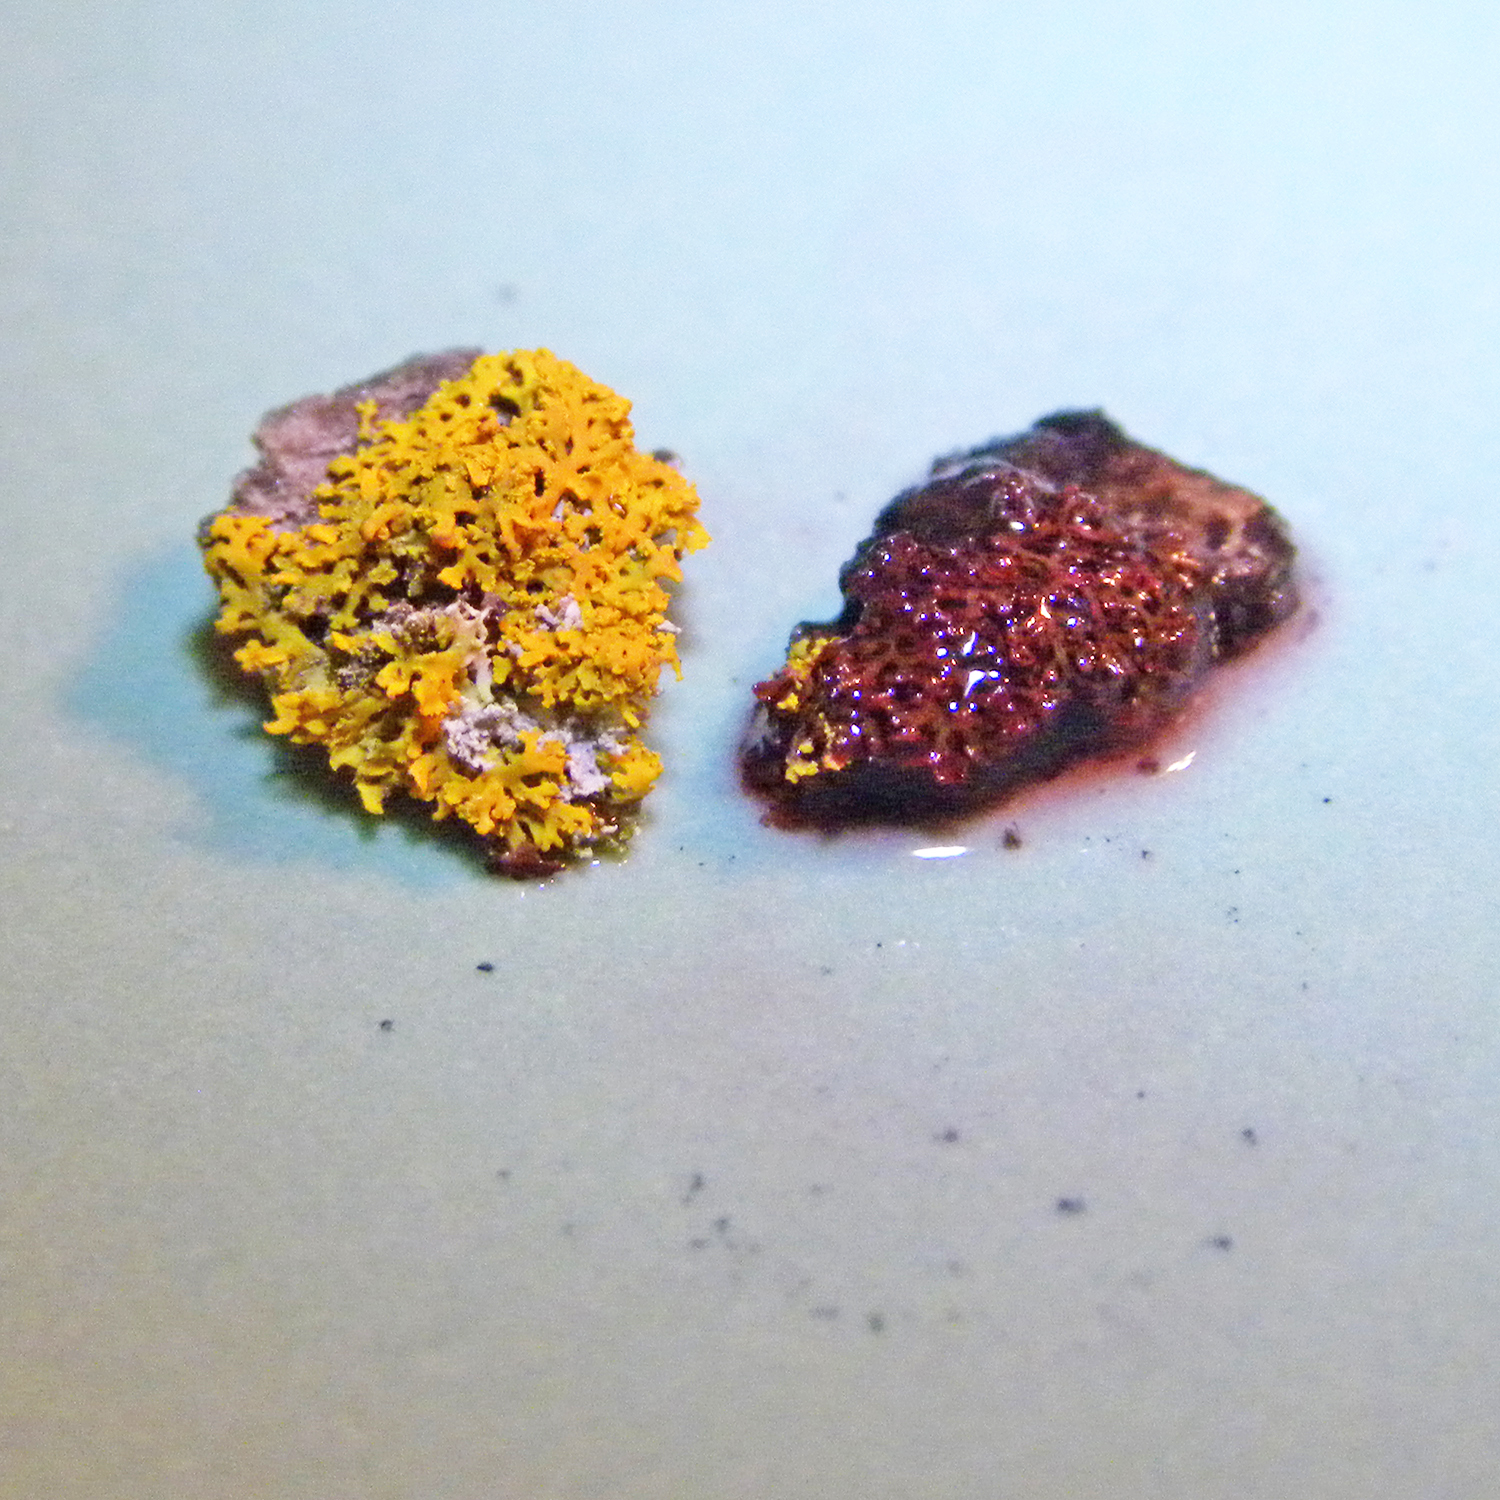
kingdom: Fungi
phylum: Ascomycota
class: Lecanoromycetes
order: Teloschistales
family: Teloschistaceae
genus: Gallowayella
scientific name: Gallowayella weberi
